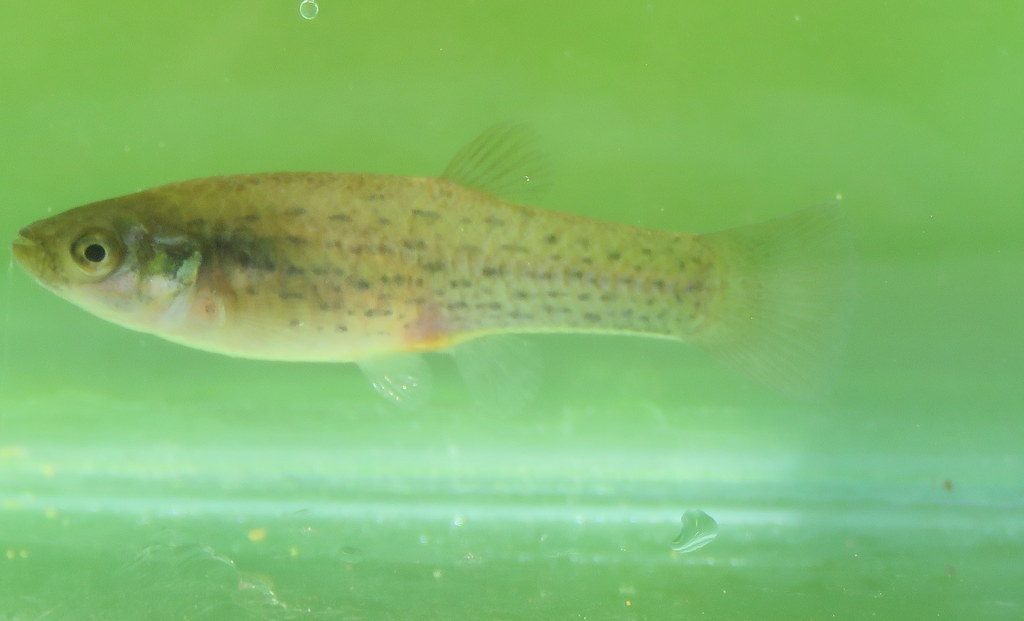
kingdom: Animalia
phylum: Chordata
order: Cyprinodontiformes
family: Anablepidae
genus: Jenynsia
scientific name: Jenynsia lineata
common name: Onesided livebearer
